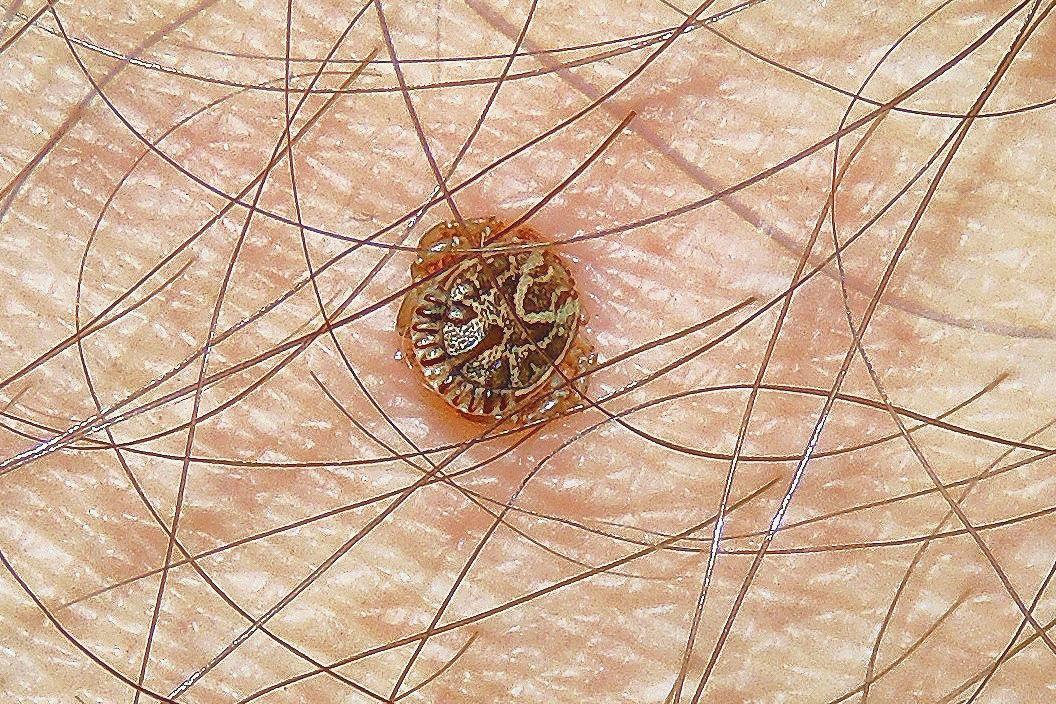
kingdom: Animalia
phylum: Arthropoda
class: Arachnida
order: Ixodida
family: Ixodidae
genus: Amblyomma
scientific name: Amblyomma cajennense
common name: Cayenne tick
